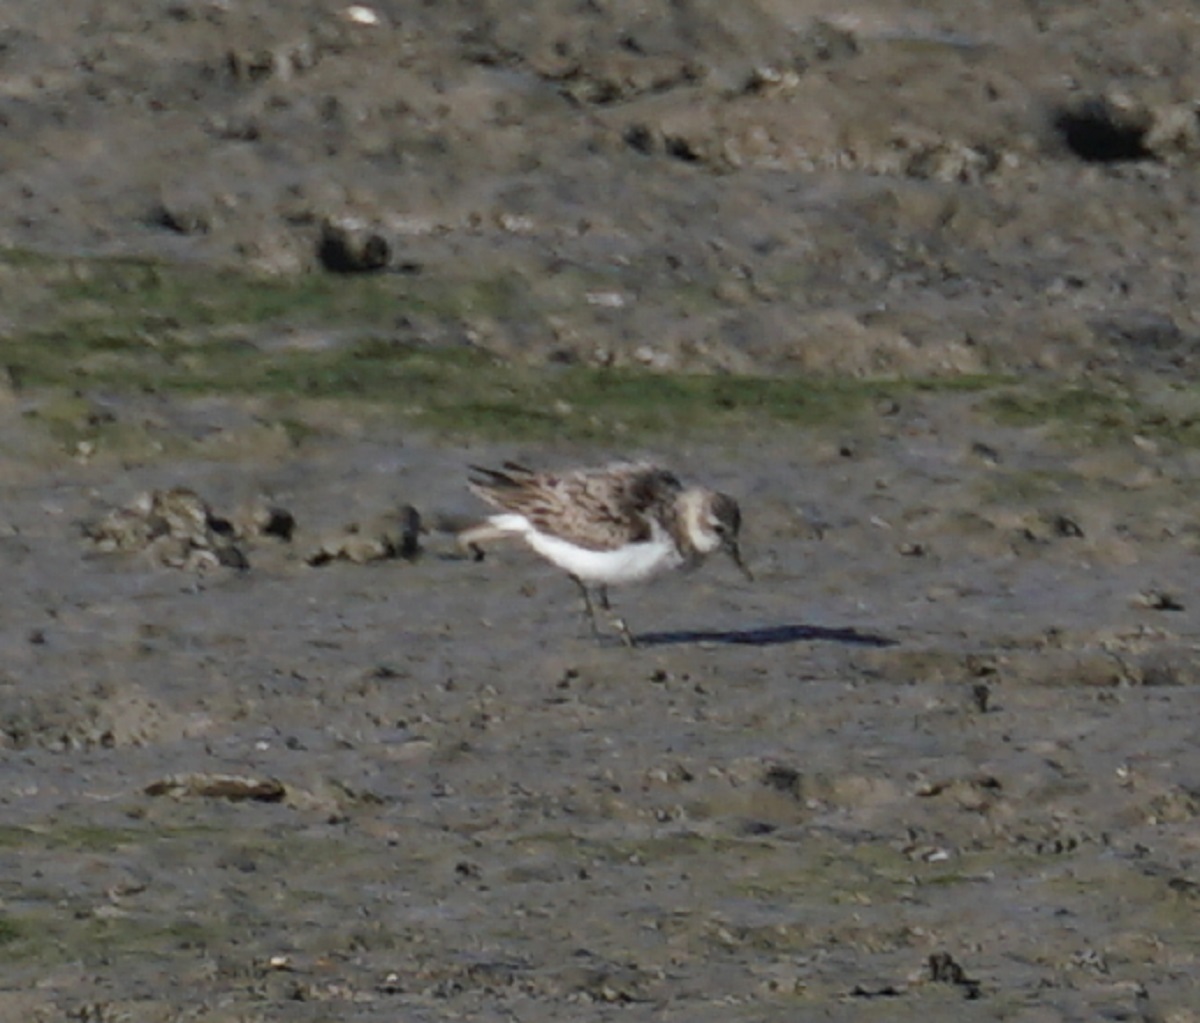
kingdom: Animalia
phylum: Chordata
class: Aves
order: Charadriiformes
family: Scolopacidae
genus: Calidris
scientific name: Calidris ruficollis
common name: Red-necked stint
